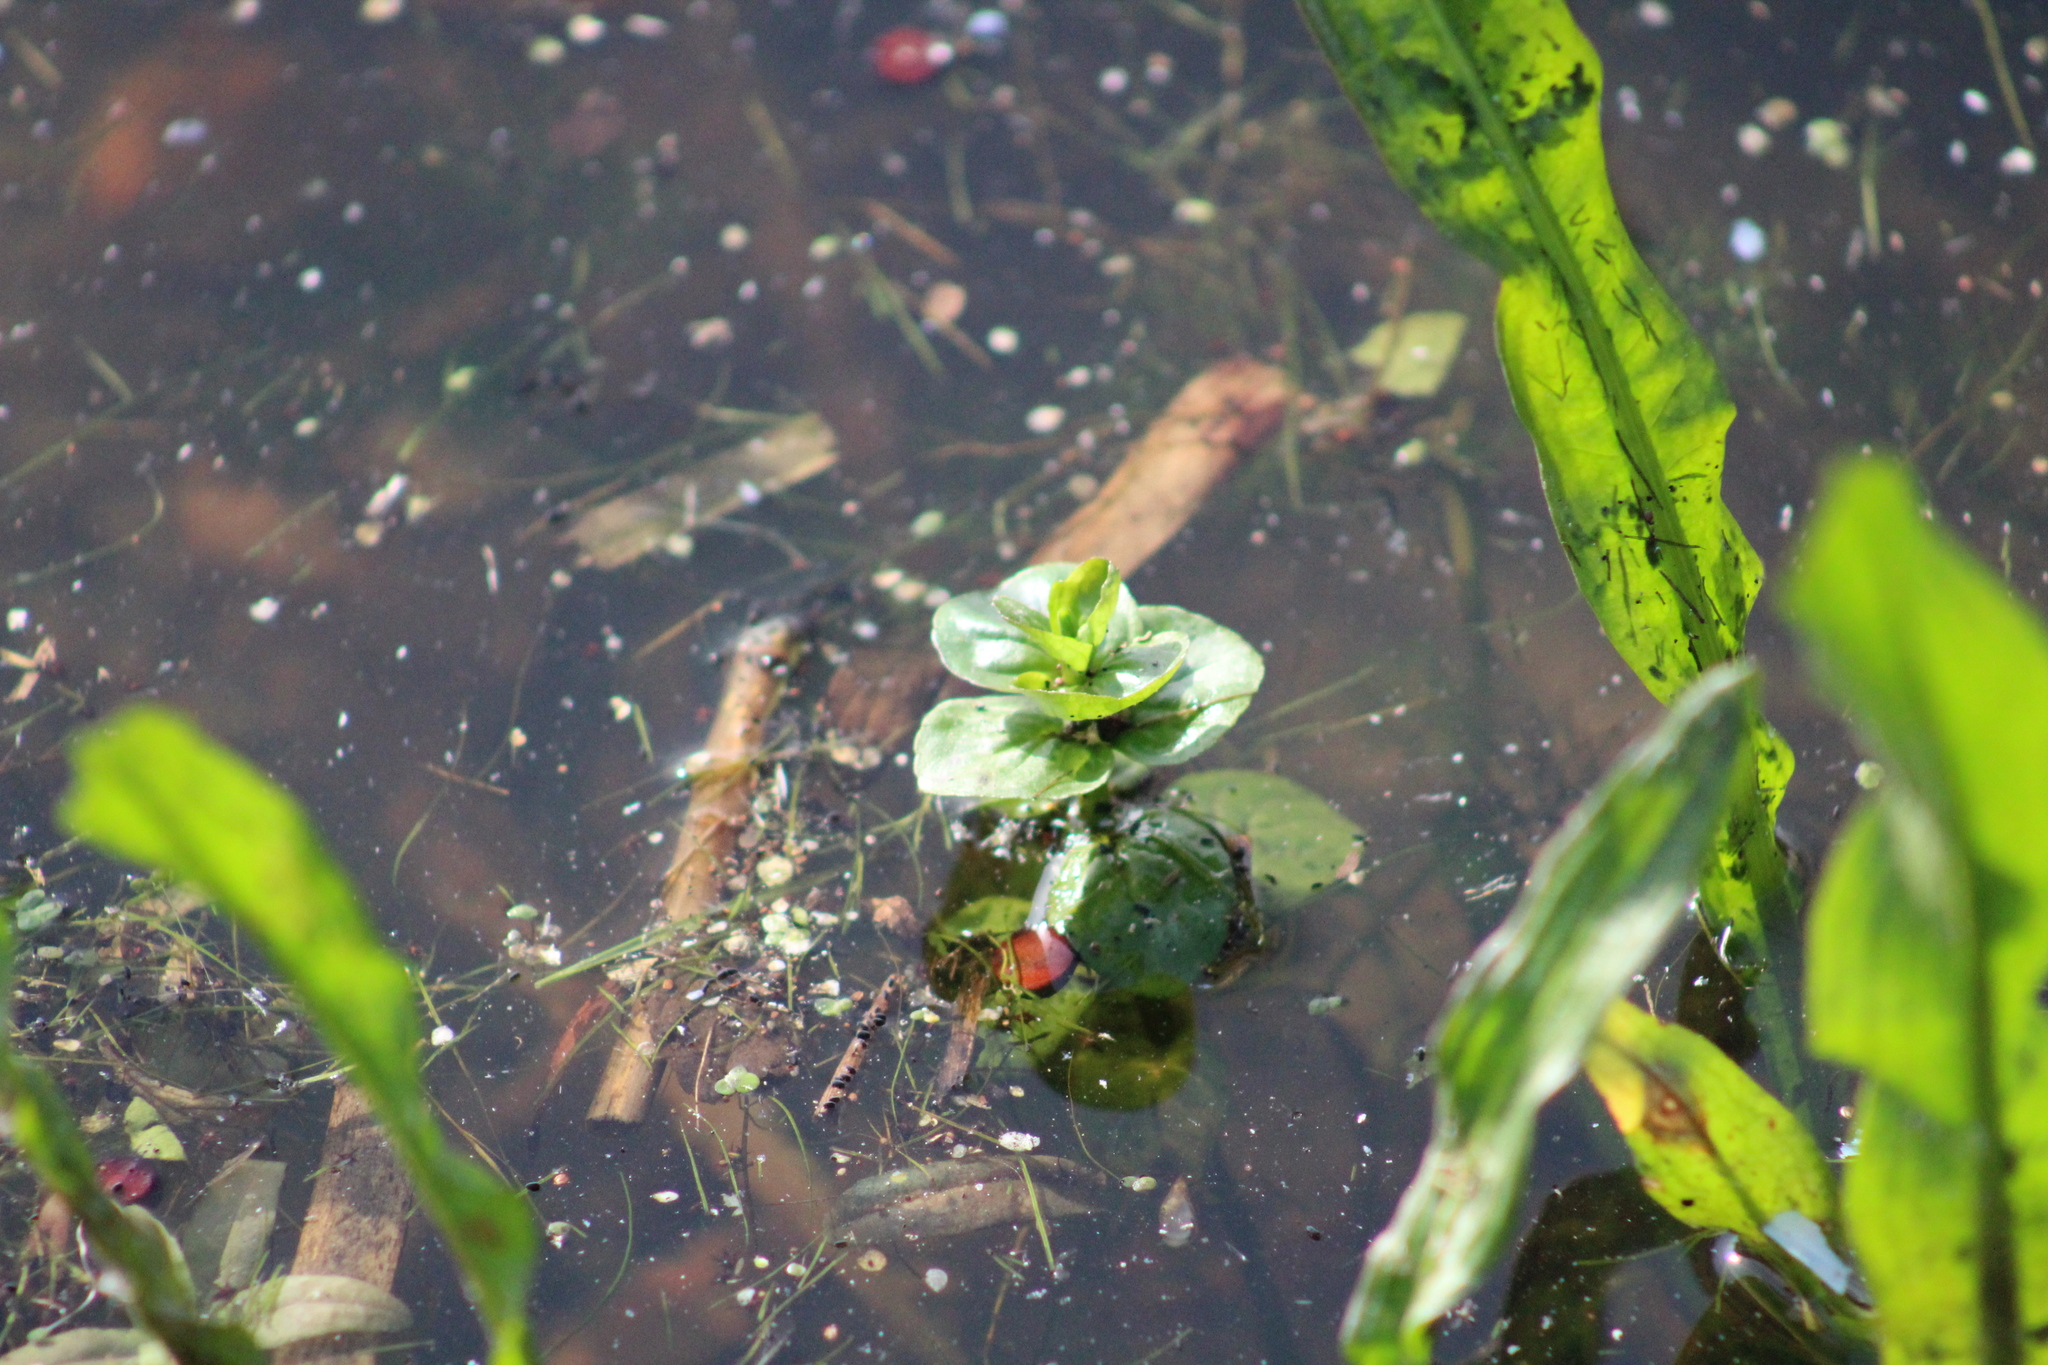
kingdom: Plantae
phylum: Tracheophyta
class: Magnoliopsida
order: Lamiales
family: Lamiaceae
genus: Mentha
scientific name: Mentha aquatica
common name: Water mint
